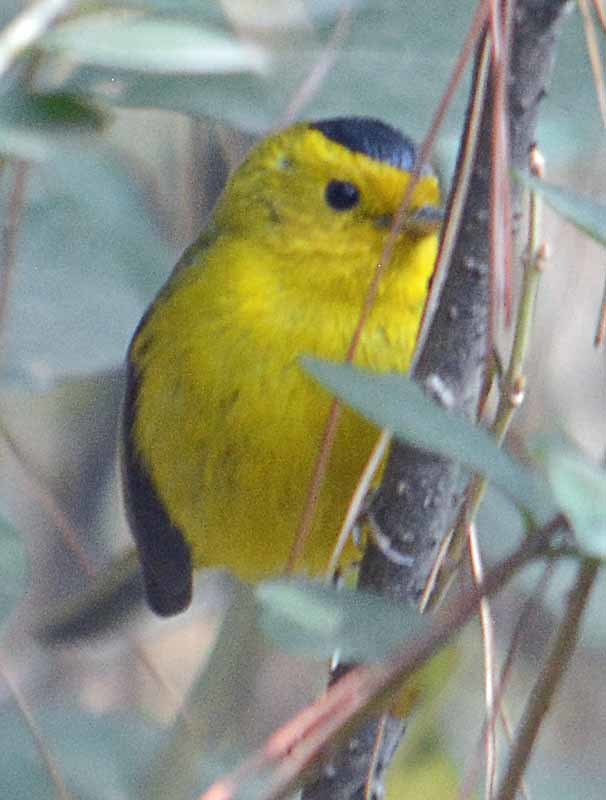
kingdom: Animalia
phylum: Chordata
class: Aves
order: Passeriformes
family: Parulidae
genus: Cardellina
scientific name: Cardellina pusilla
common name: Wilson's warbler
